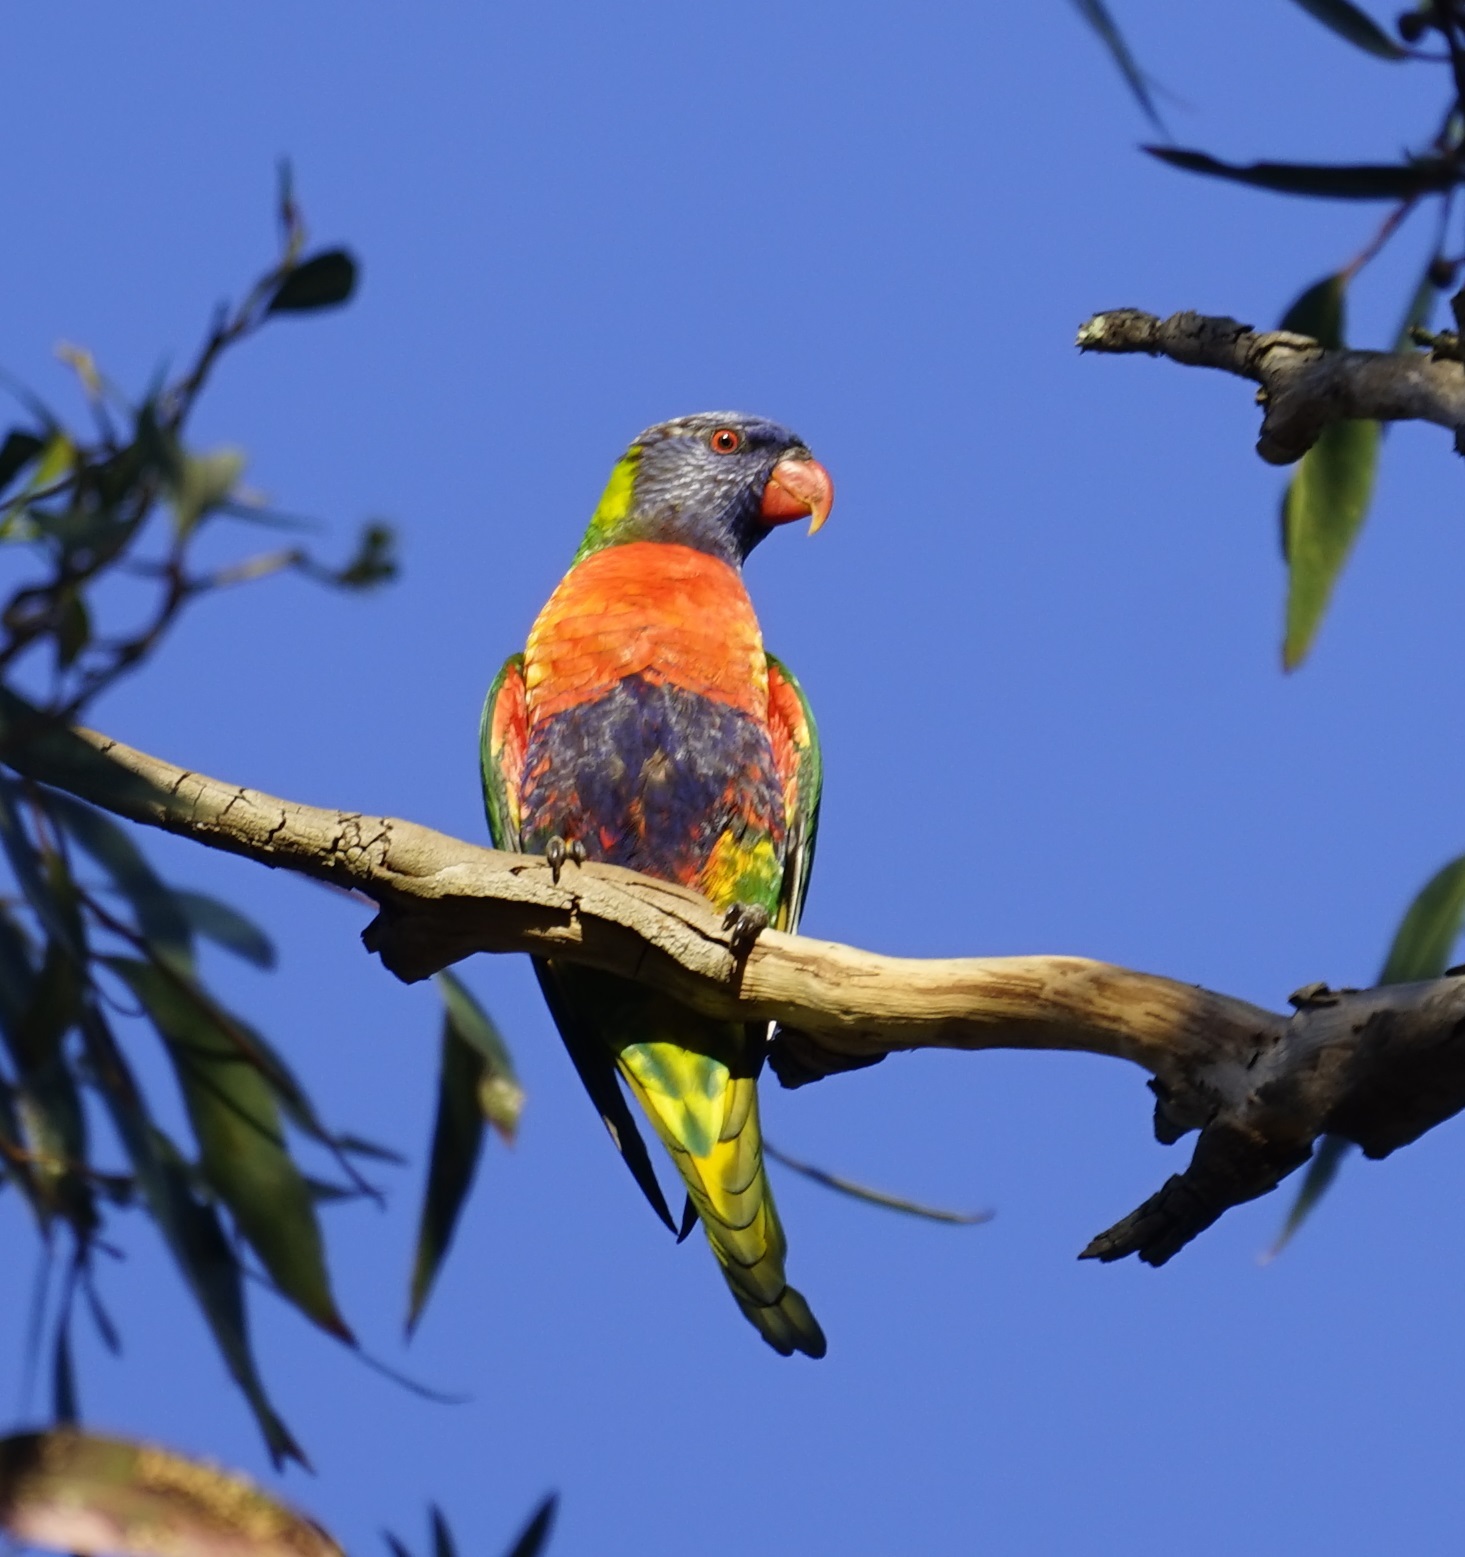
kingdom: Animalia
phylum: Chordata
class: Aves
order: Psittaciformes
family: Psittacidae
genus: Trichoglossus
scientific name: Trichoglossus haematodus
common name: Coconut lorikeet
